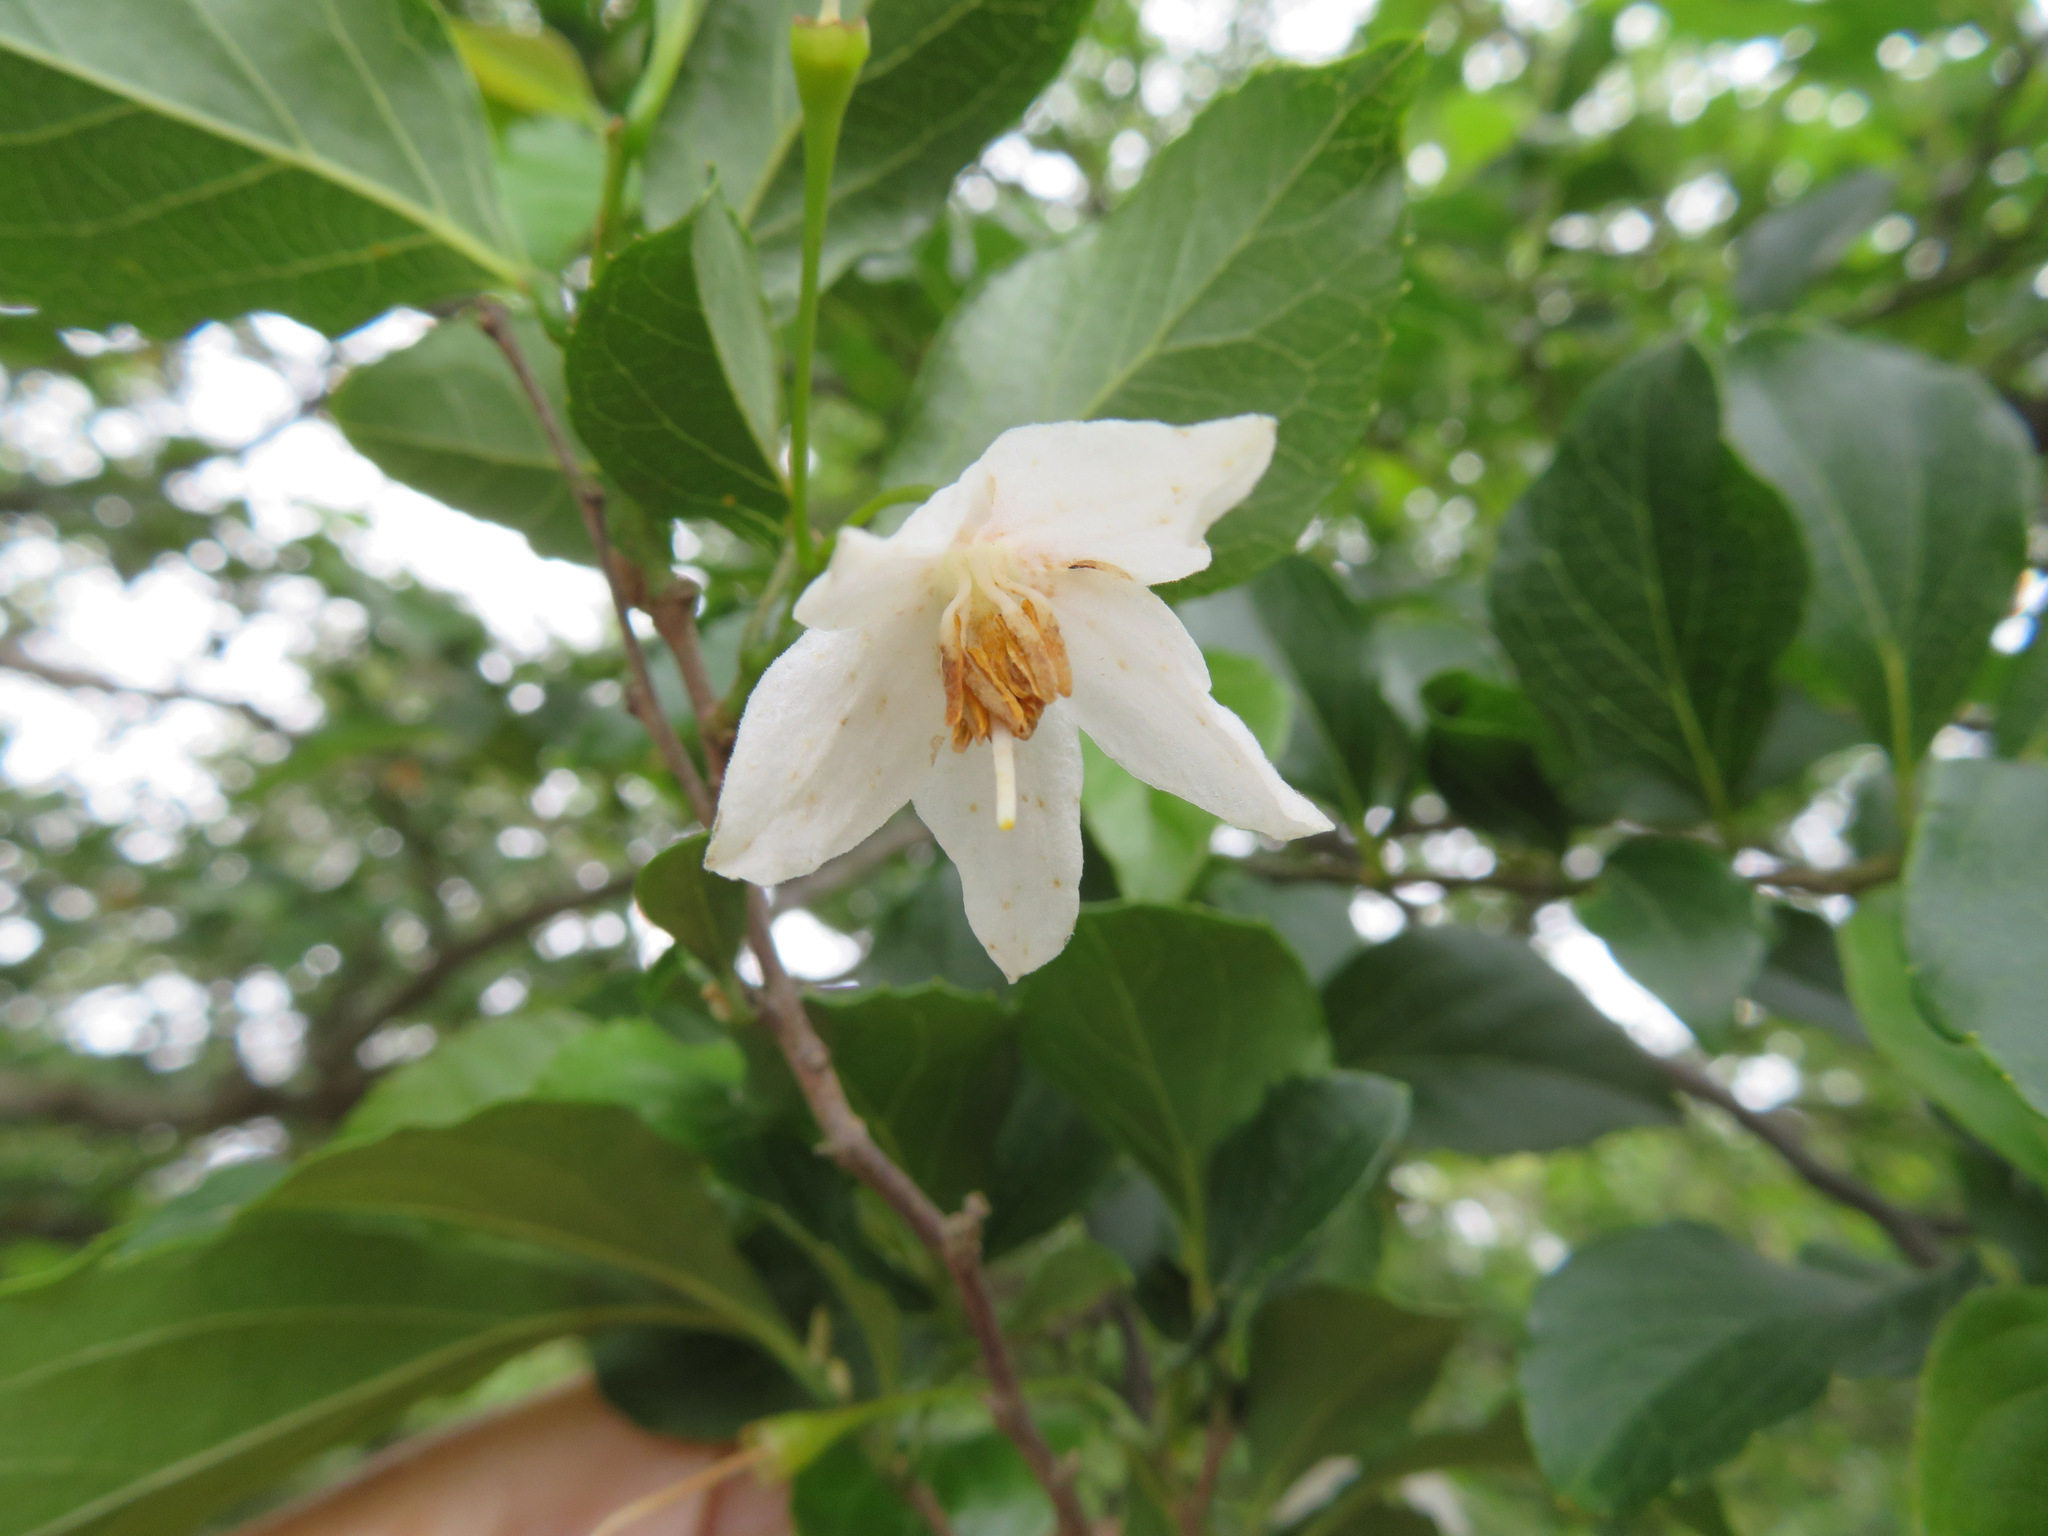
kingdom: Plantae
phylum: Tracheophyta
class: Magnoliopsida
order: Ericales
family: Styracaceae
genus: Styrax
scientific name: Styrax japonicus
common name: Japanese snowbell
